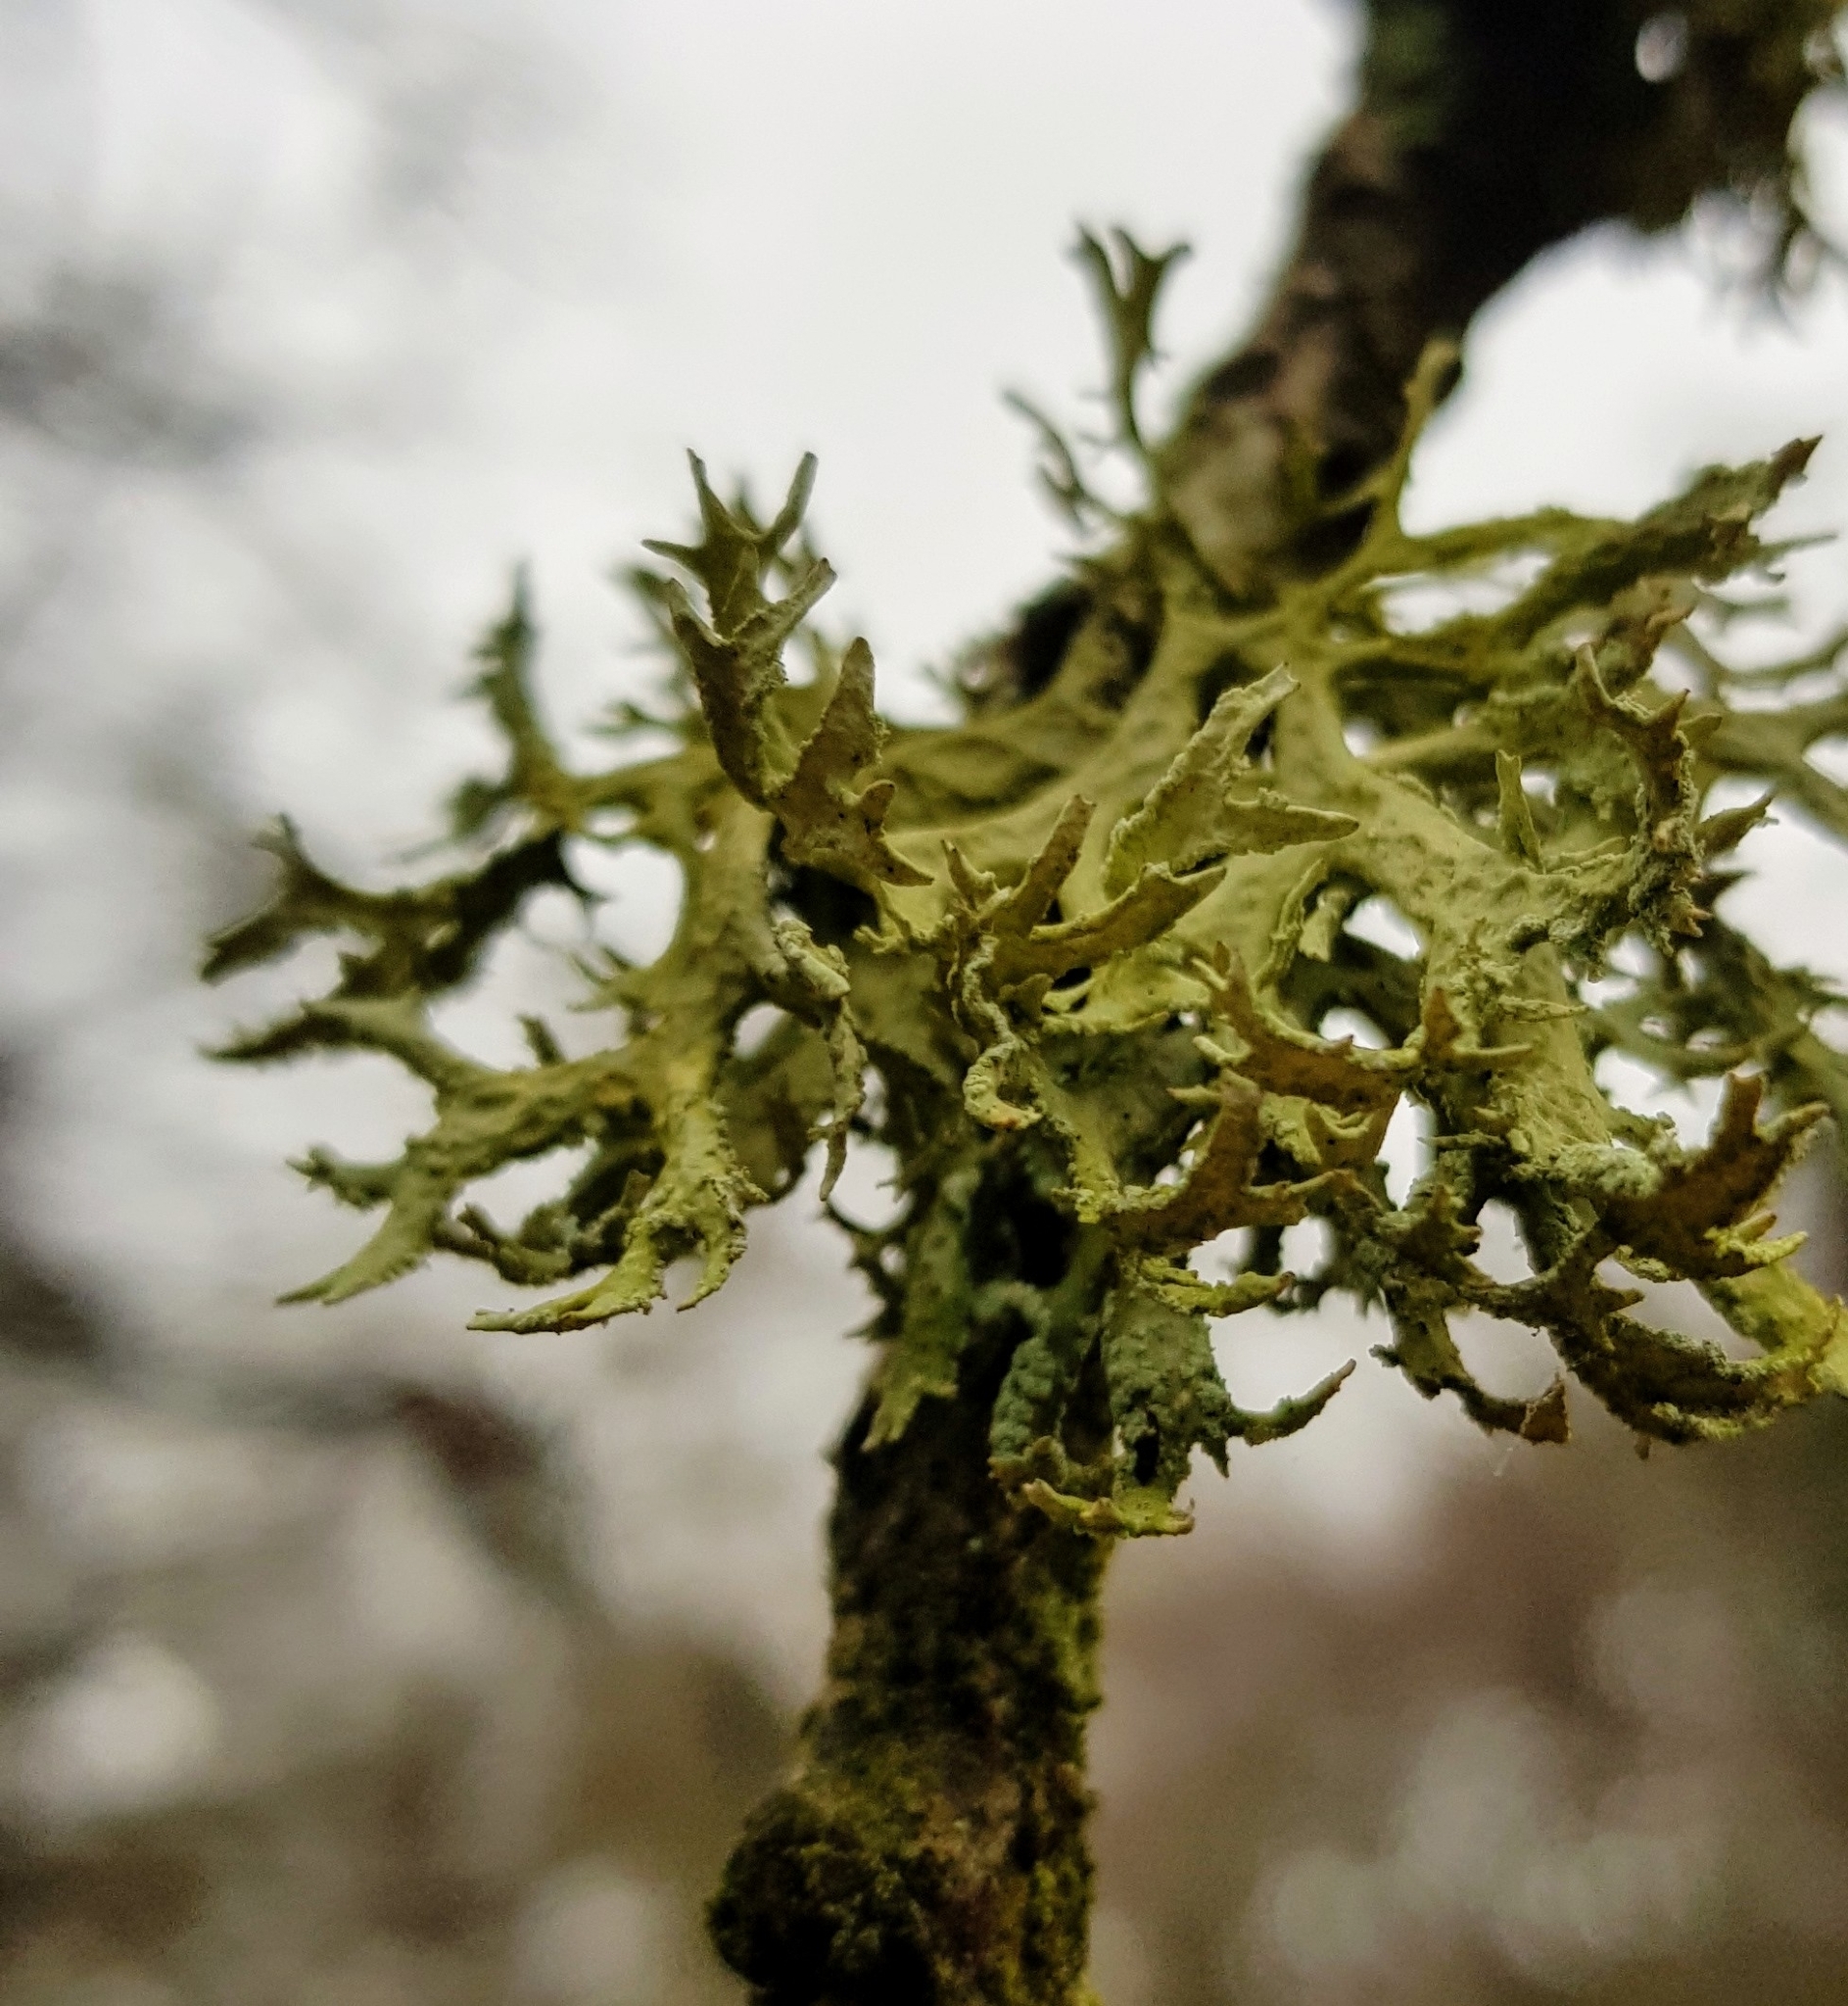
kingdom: Fungi
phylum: Ascomycota
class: Lecanoromycetes
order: Lecanorales
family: Parmeliaceae
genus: Evernia
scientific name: Evernia prunastri
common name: Oak moss
